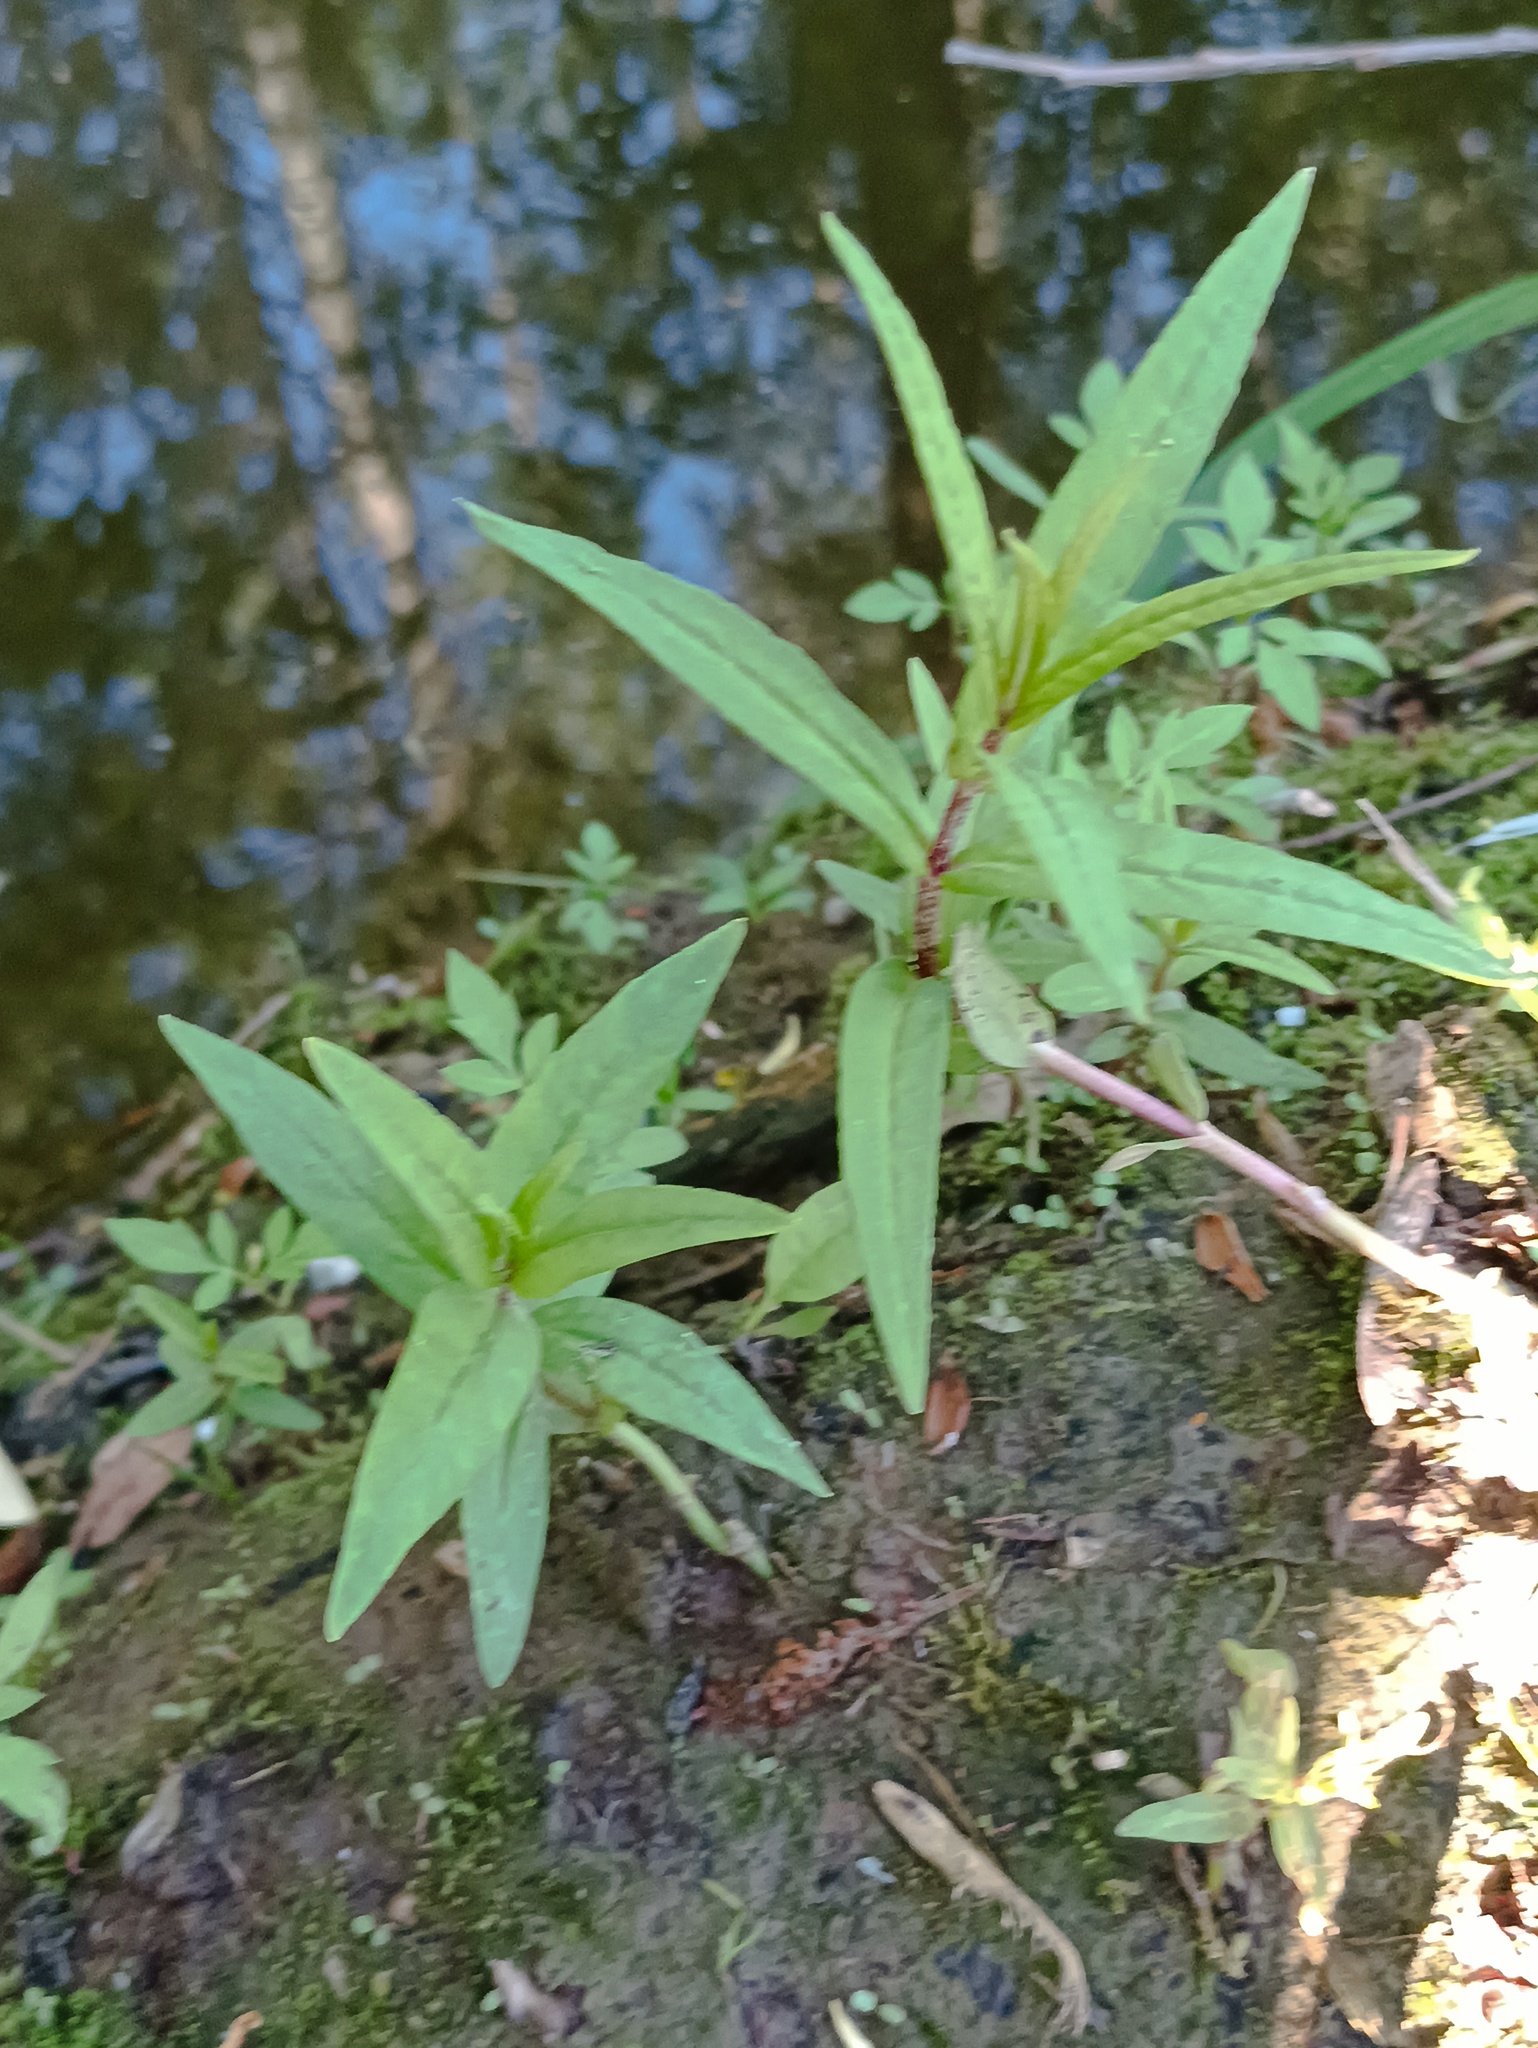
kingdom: Plantae
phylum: Tracheophyta
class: Magnoliopsida
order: Ericales
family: Primulaceae
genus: Lysimachia
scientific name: Lysimachia thyrsiflora
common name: Tufted loosestrife
